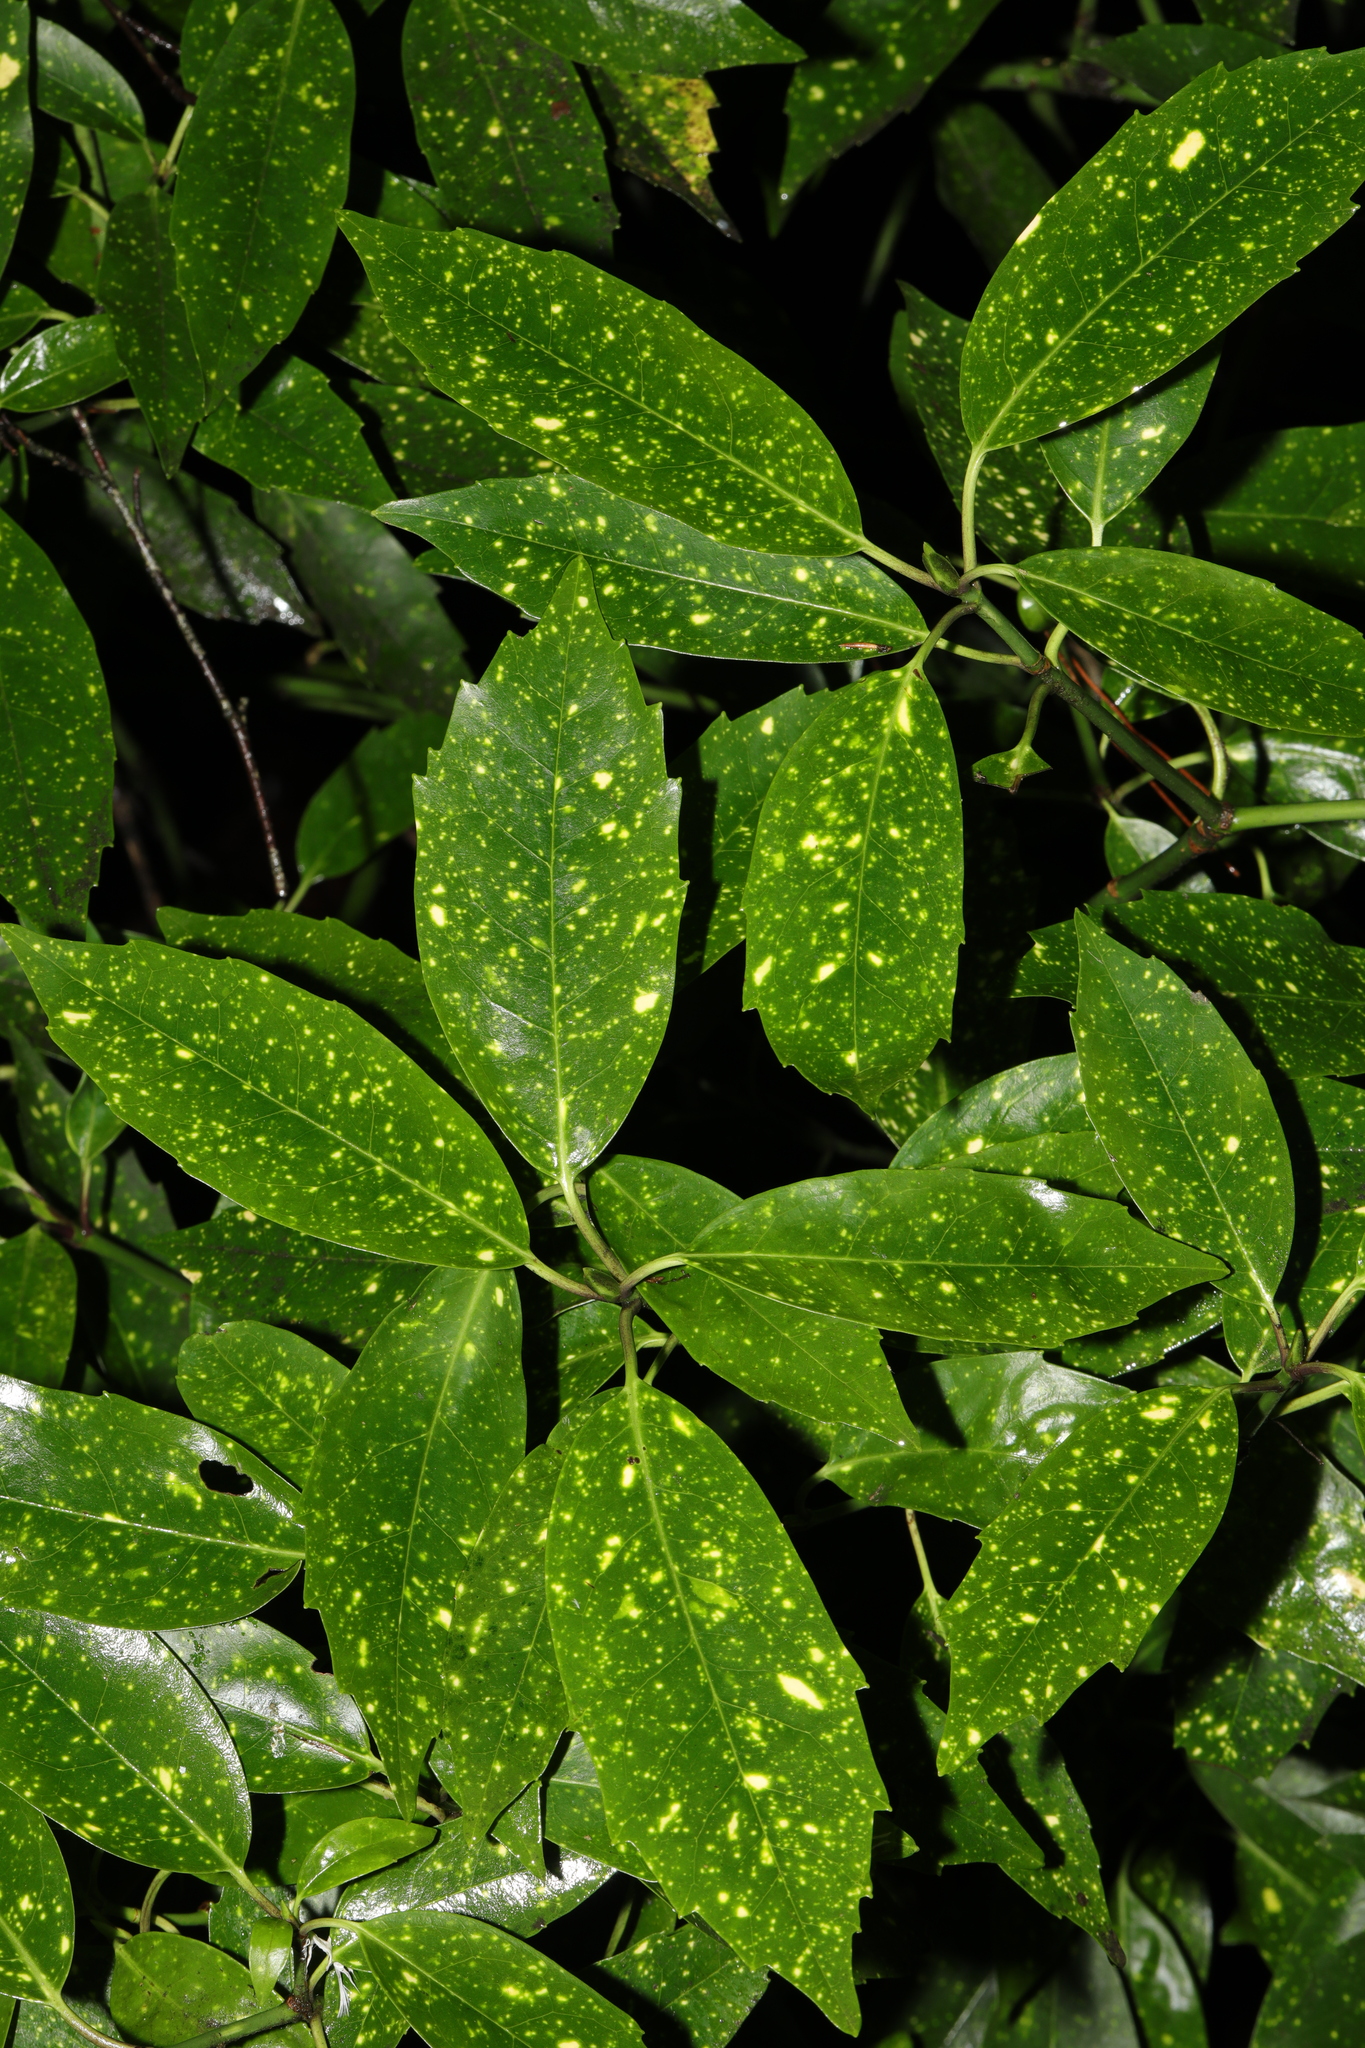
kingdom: Plantae
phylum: Tracheophyta
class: Magnoliopsida
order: Garryales
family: Garryaceae
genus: Aucuba
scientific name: Aucuba japonica
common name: Spotted-laurel
